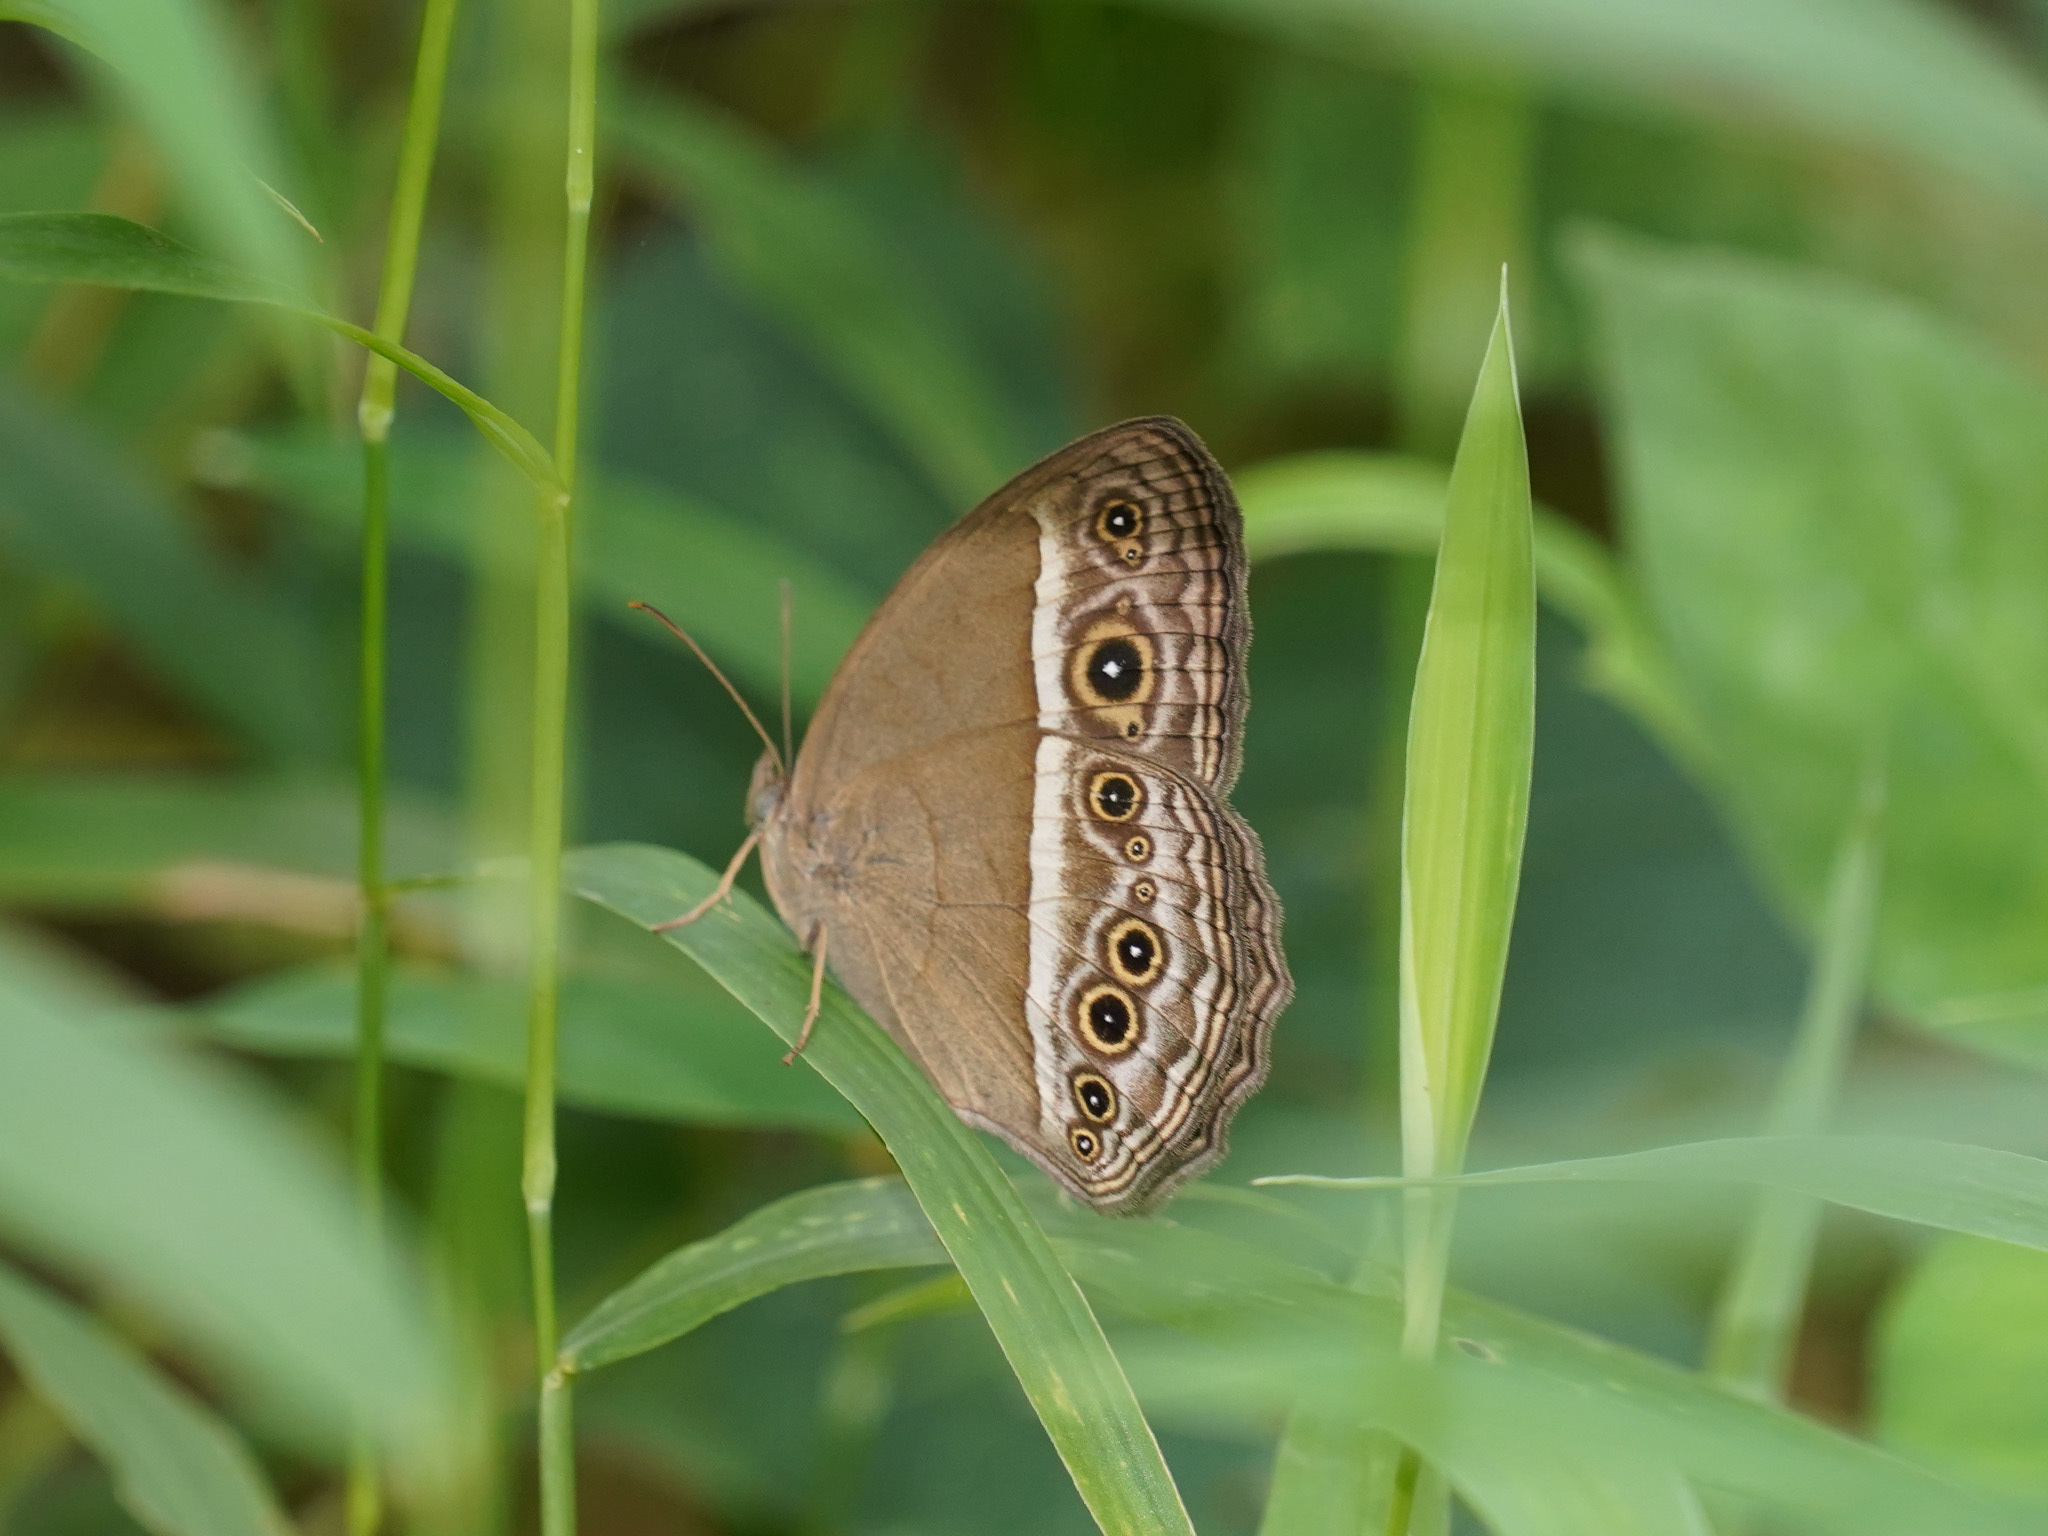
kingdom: Animalia
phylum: Arthropoda
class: Insecta
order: Lepidoptera
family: Nymphalidae
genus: Mycalesis
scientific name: Mycalesis visala
